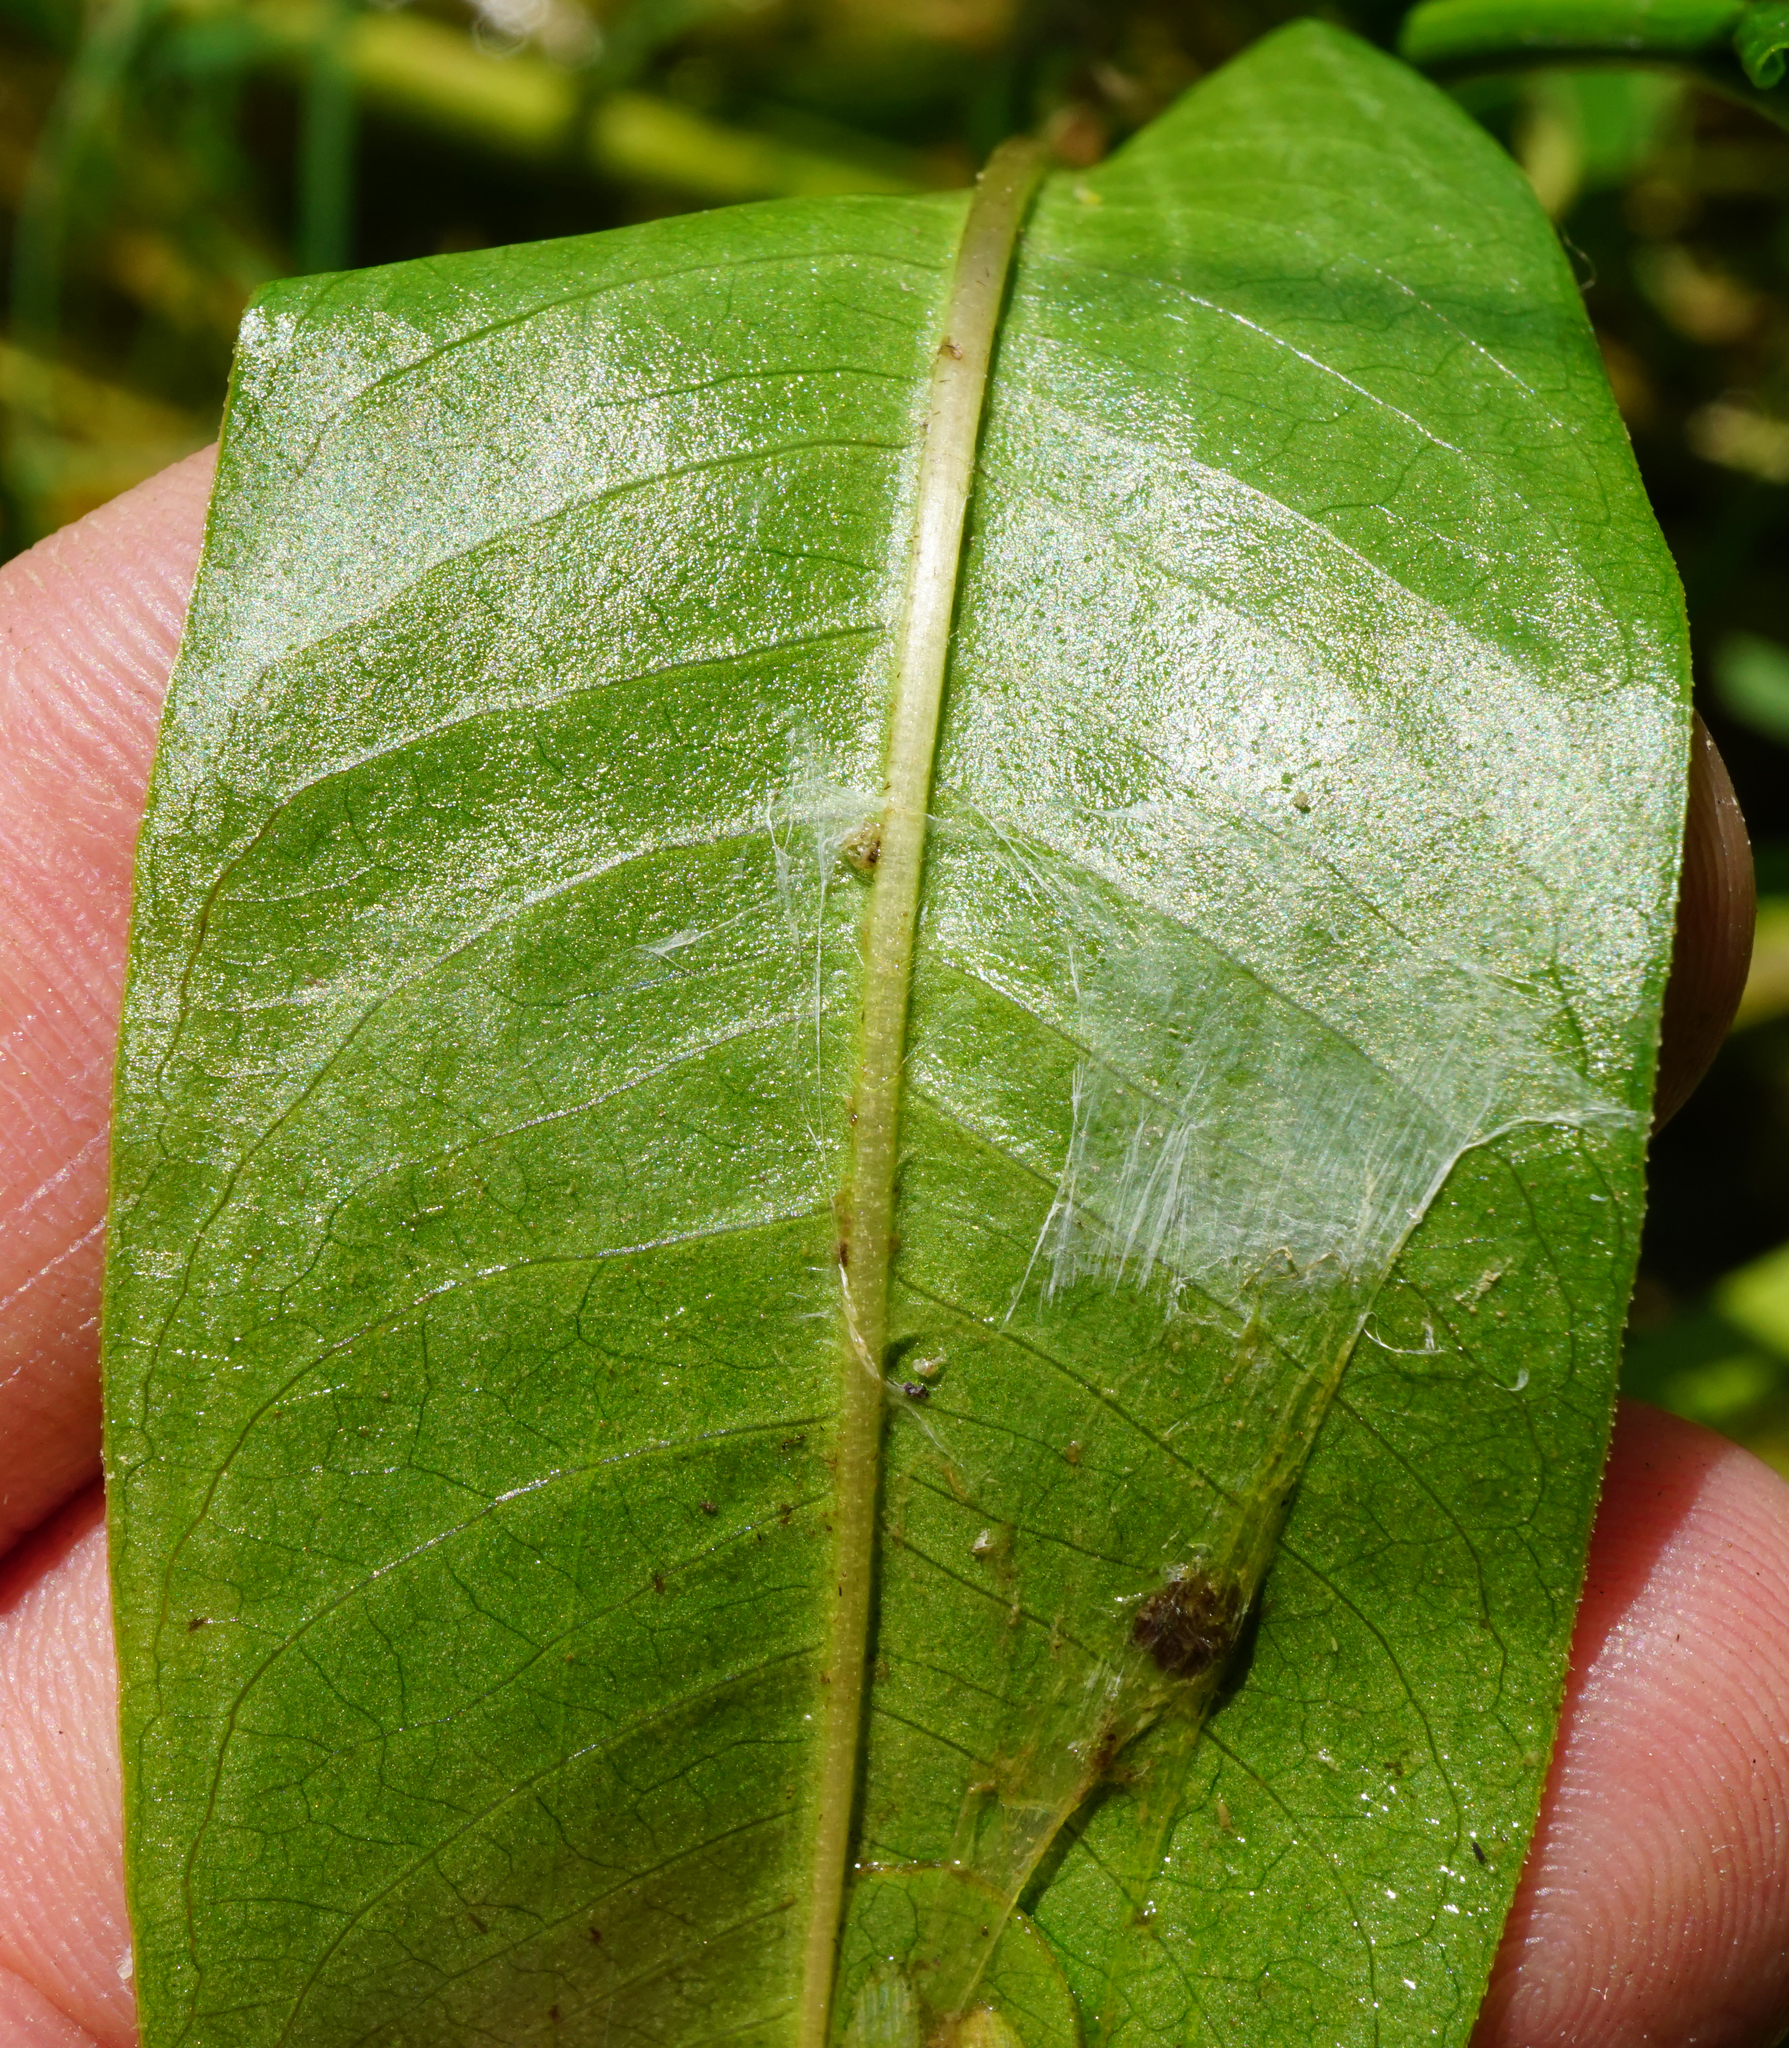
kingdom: Plantae
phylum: Tracheophyta
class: Magnoliopsida
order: Caryophyllales
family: Polygonaceae
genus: Persicaria
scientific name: Persicaria amphibia
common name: Amphibious bistort
